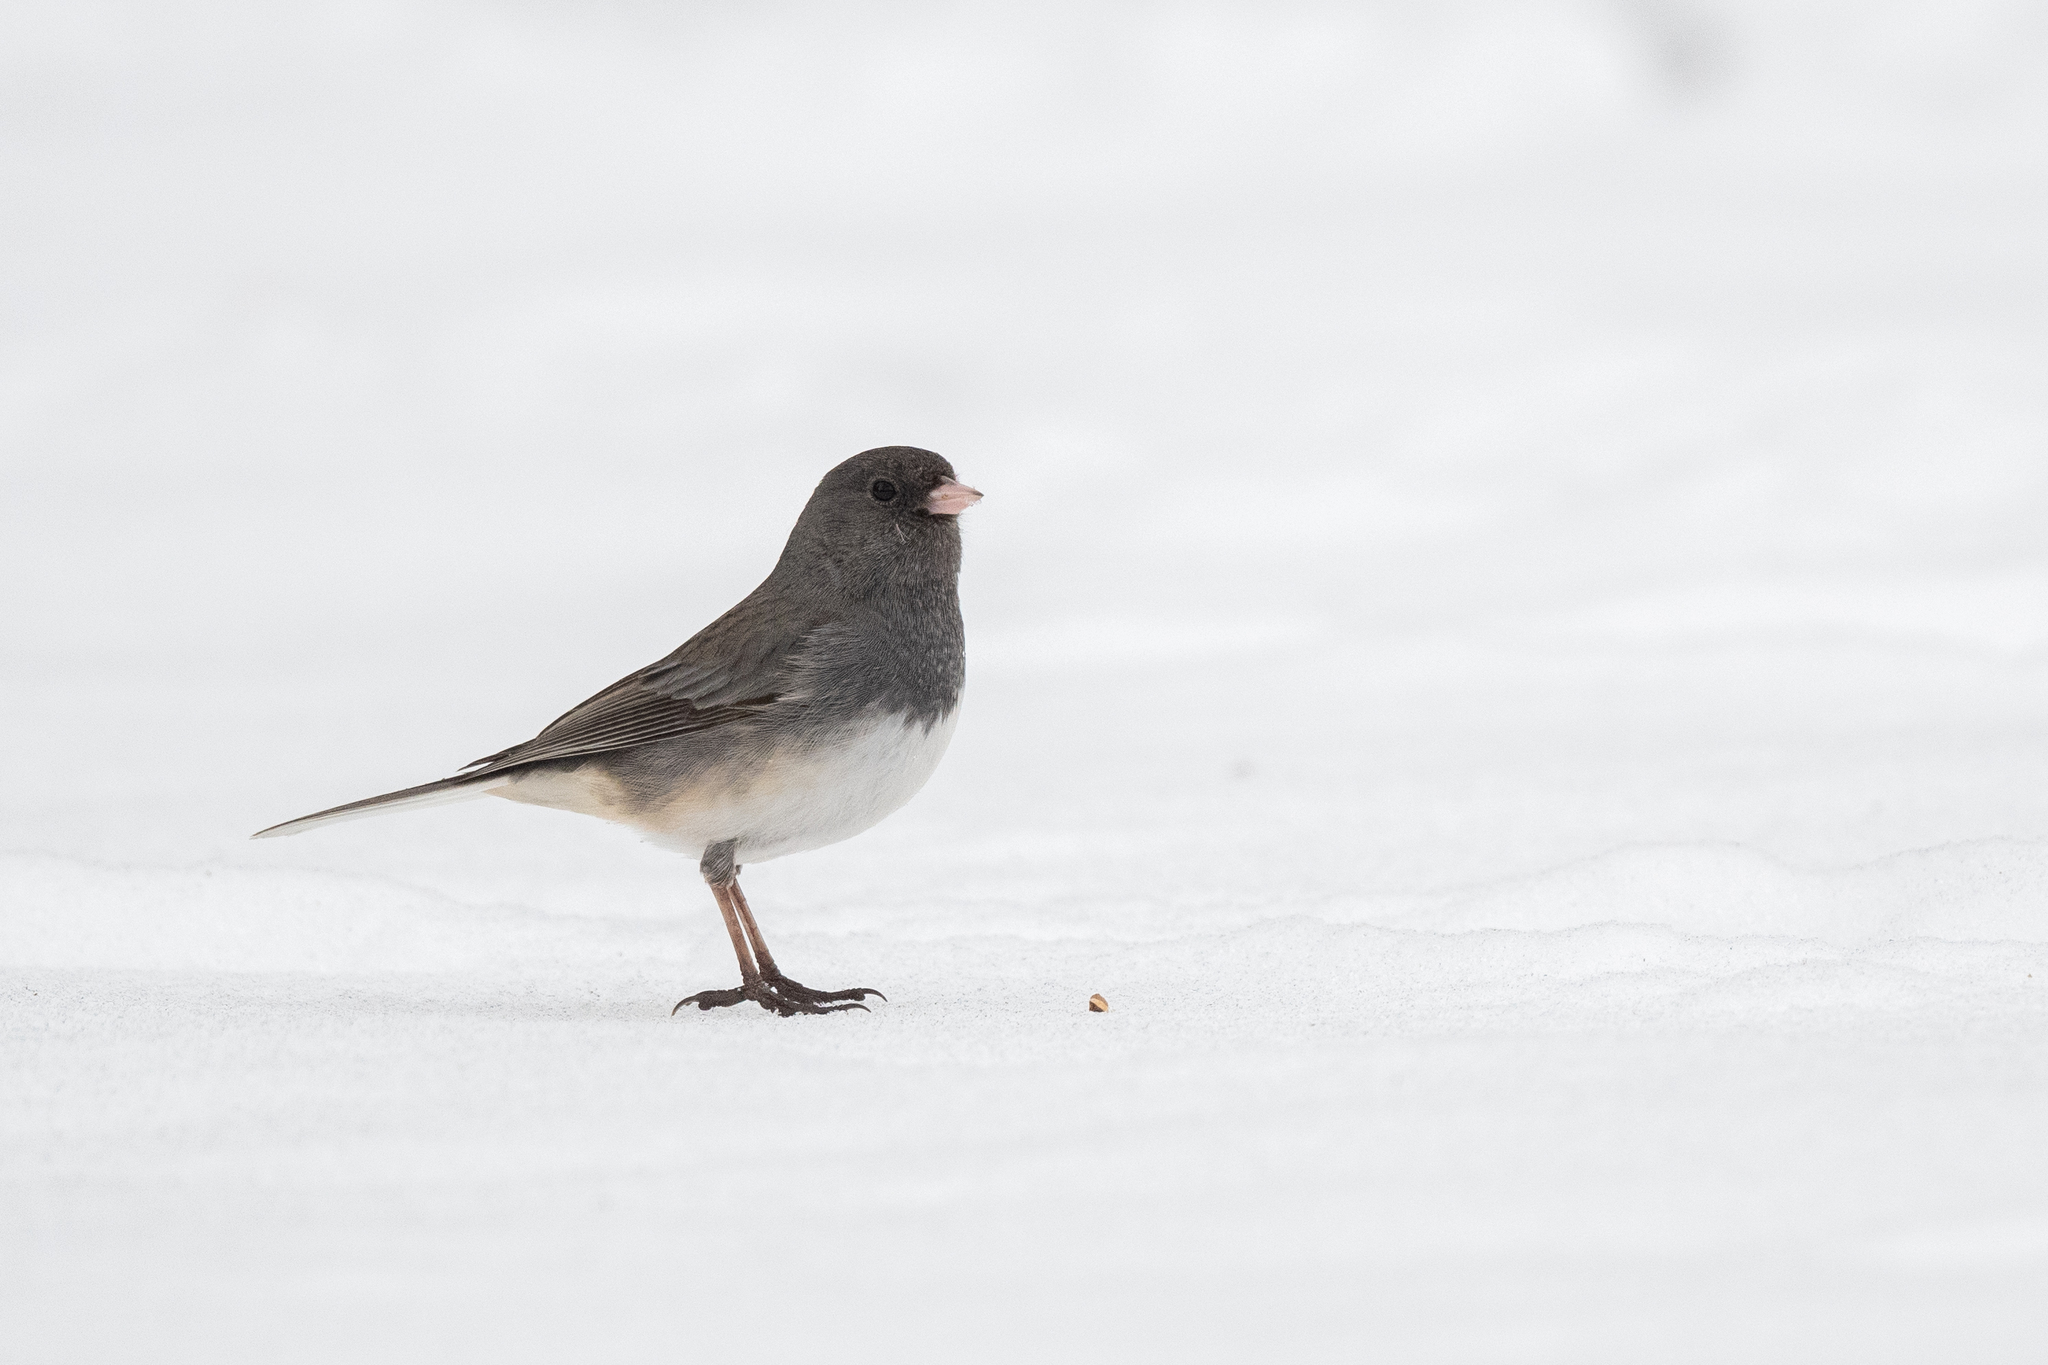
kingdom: Animalia
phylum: Chordata
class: Aves
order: Passeriformes
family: Passerellidae
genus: Junco
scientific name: Junco hyemalis
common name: Dark-eyed junco
